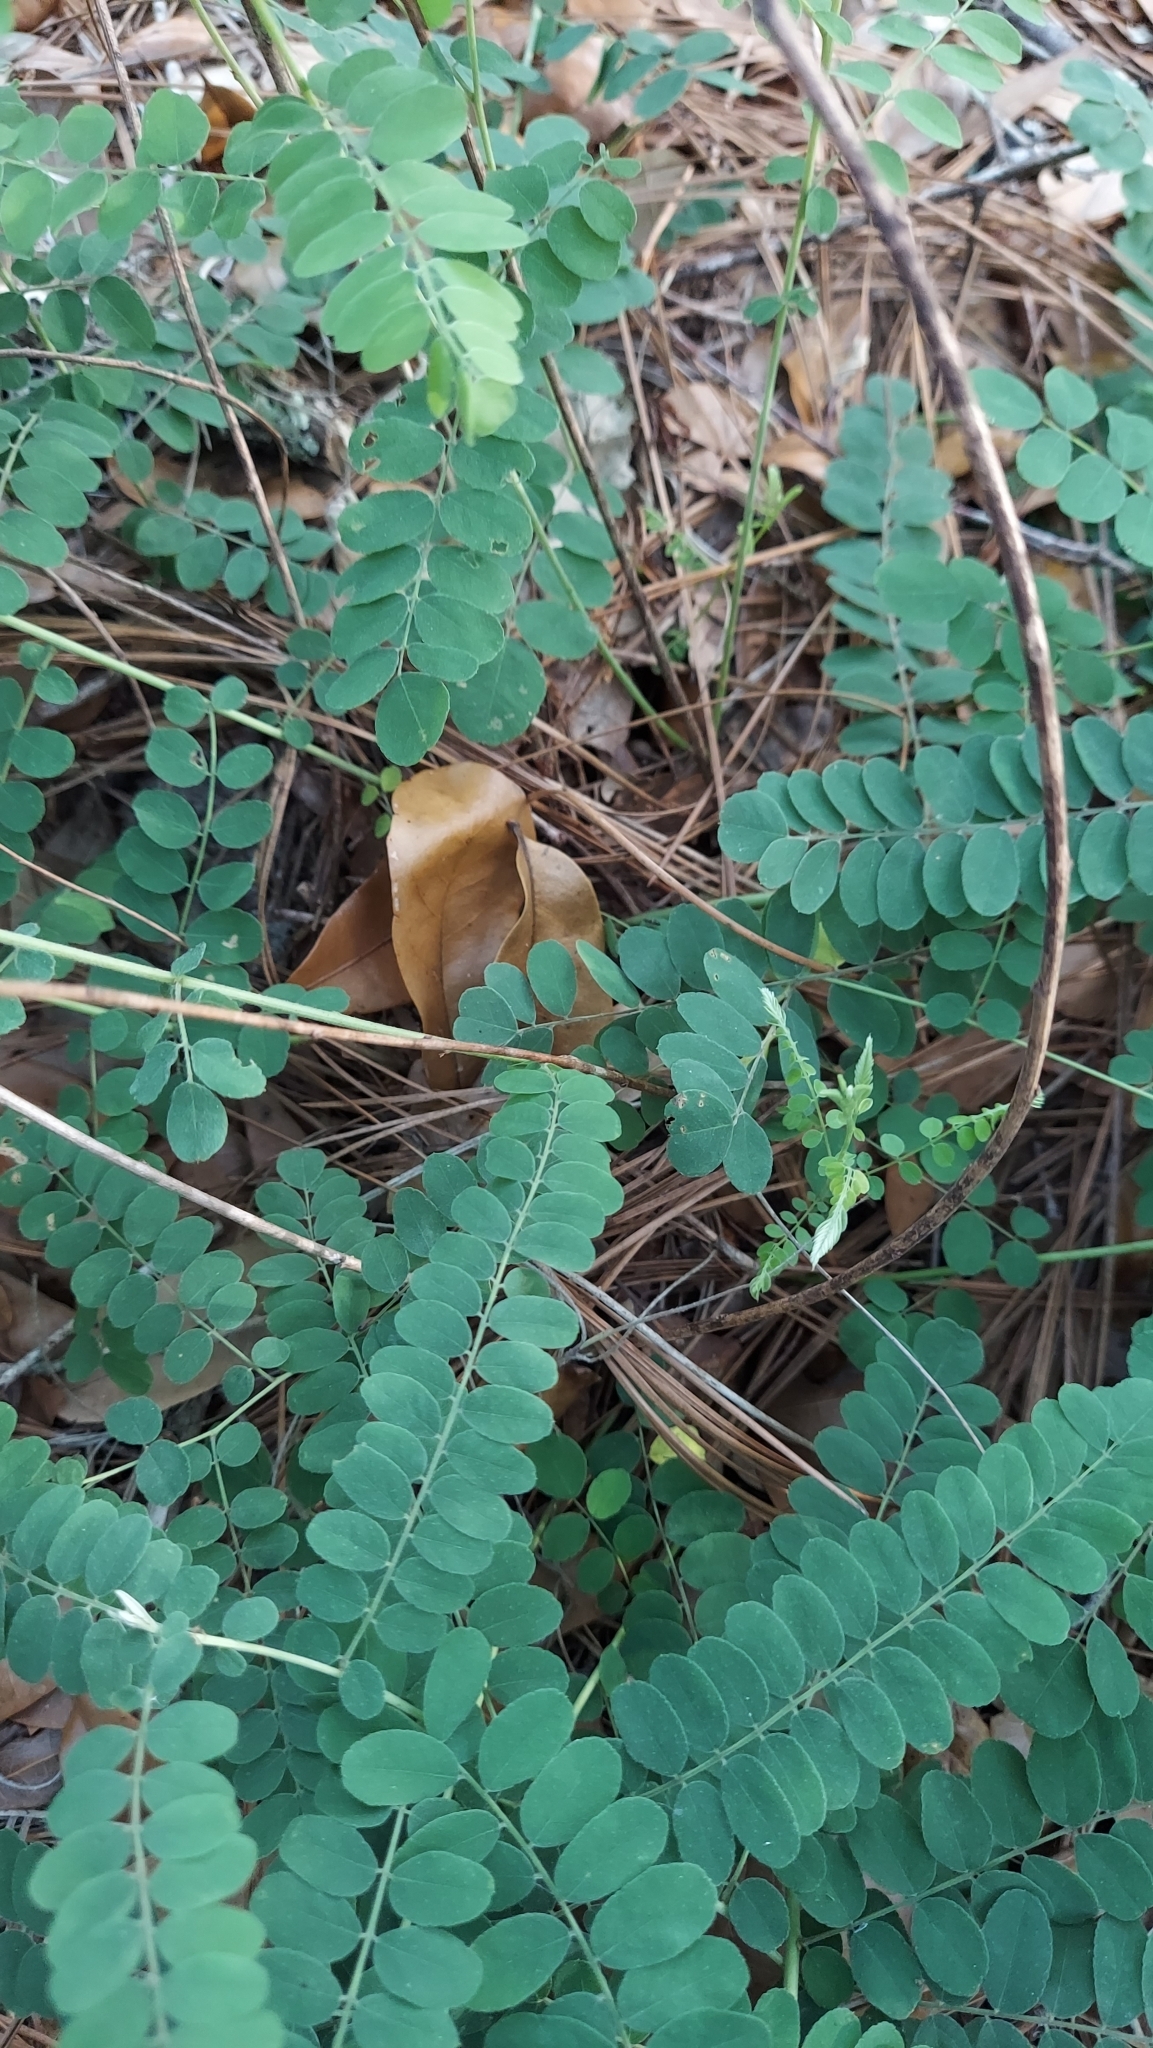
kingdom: Plantae
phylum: Tracheophyta
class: Magnoliopsida
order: Fabales
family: Fabaceae
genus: Amorpha
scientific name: Amorpha herbacea
